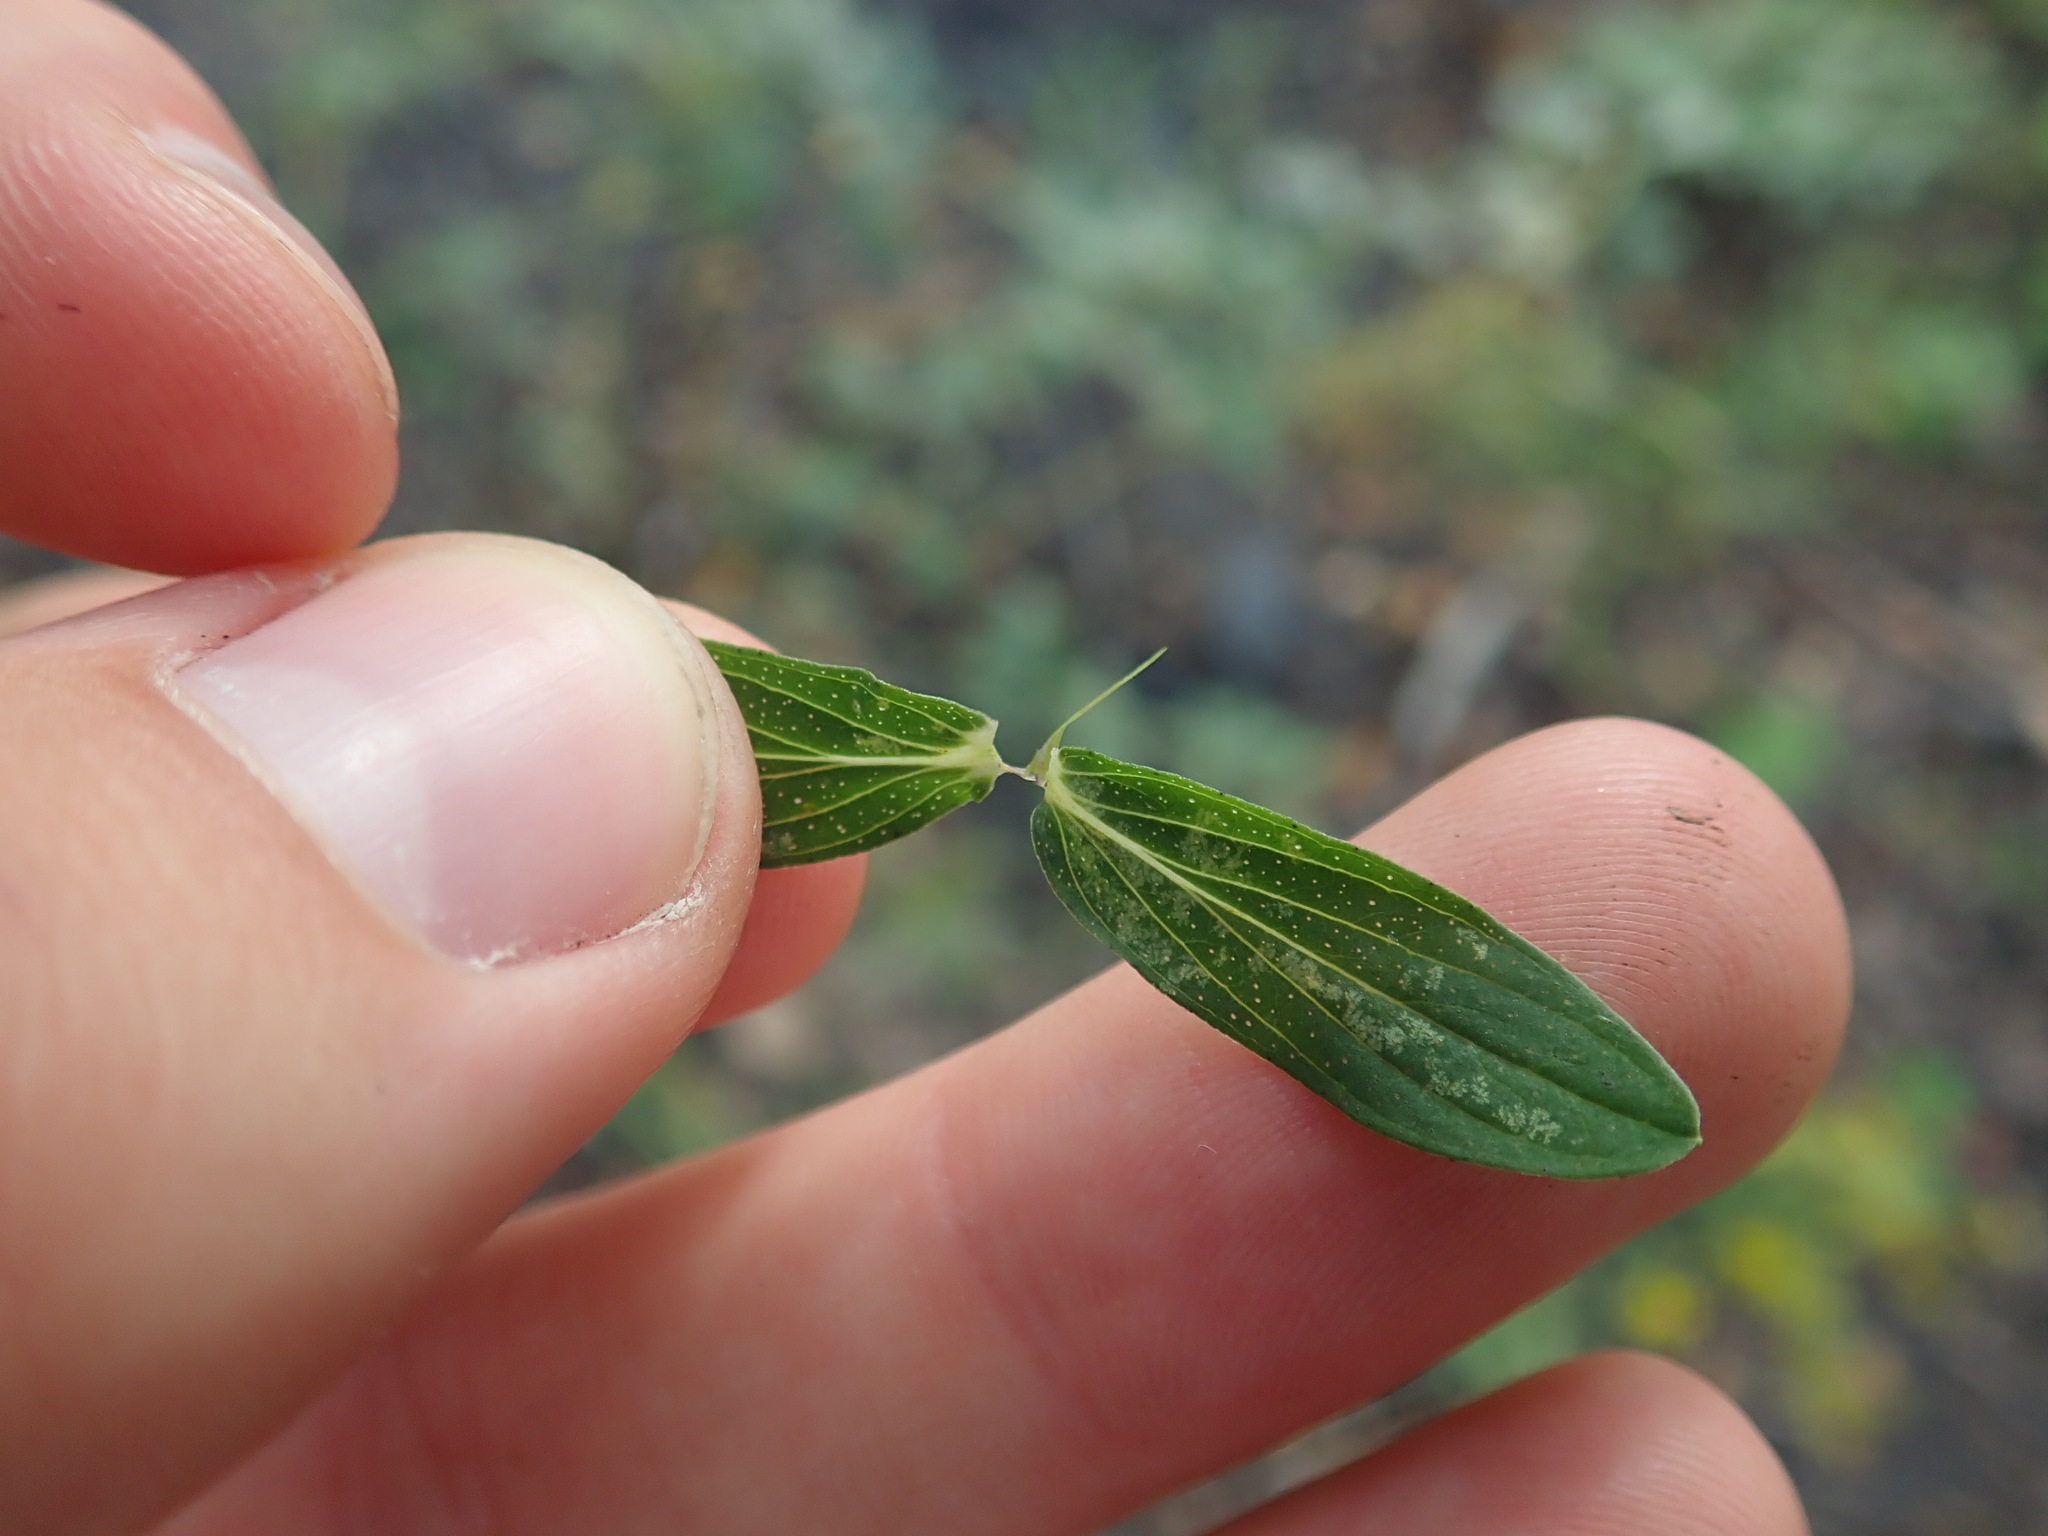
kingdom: Plantae
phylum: Tracheophyta
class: Magnoliopsida
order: Malpighiales
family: Hypericaceae
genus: Hypericum
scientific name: Hypericum perforatum
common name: Common st. johnswort
